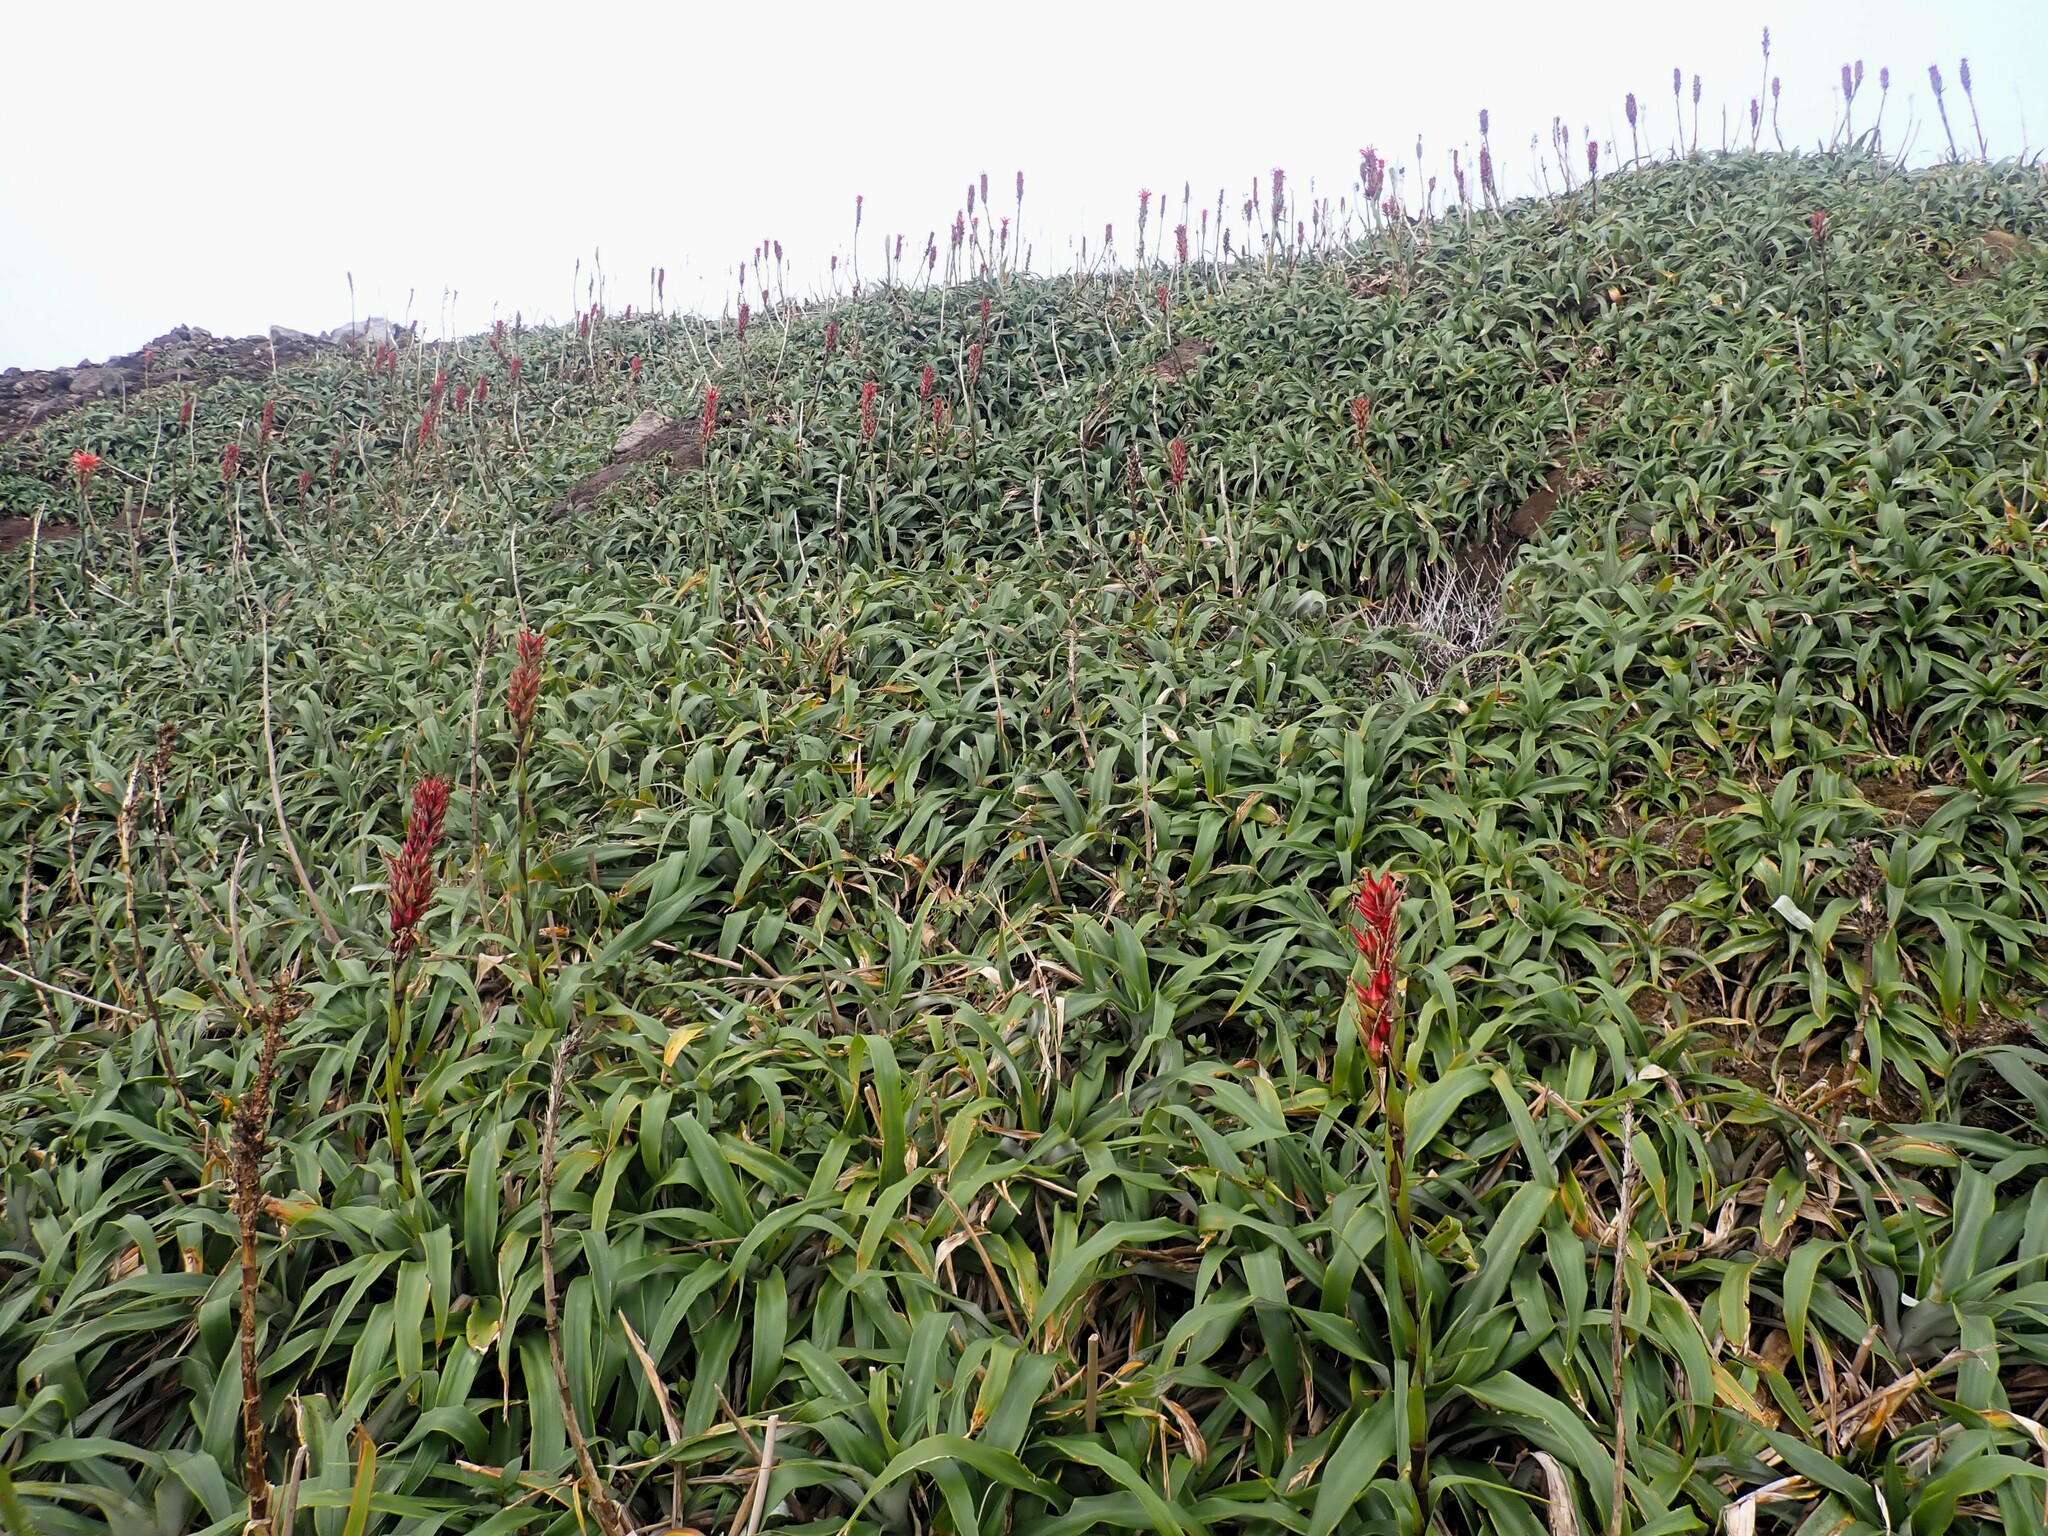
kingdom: Plantae
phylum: Tracheophyta
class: Liliopsida
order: Poales
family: Bromeliaceae
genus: Pitcairnia
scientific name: Pitcairnia bifrons
